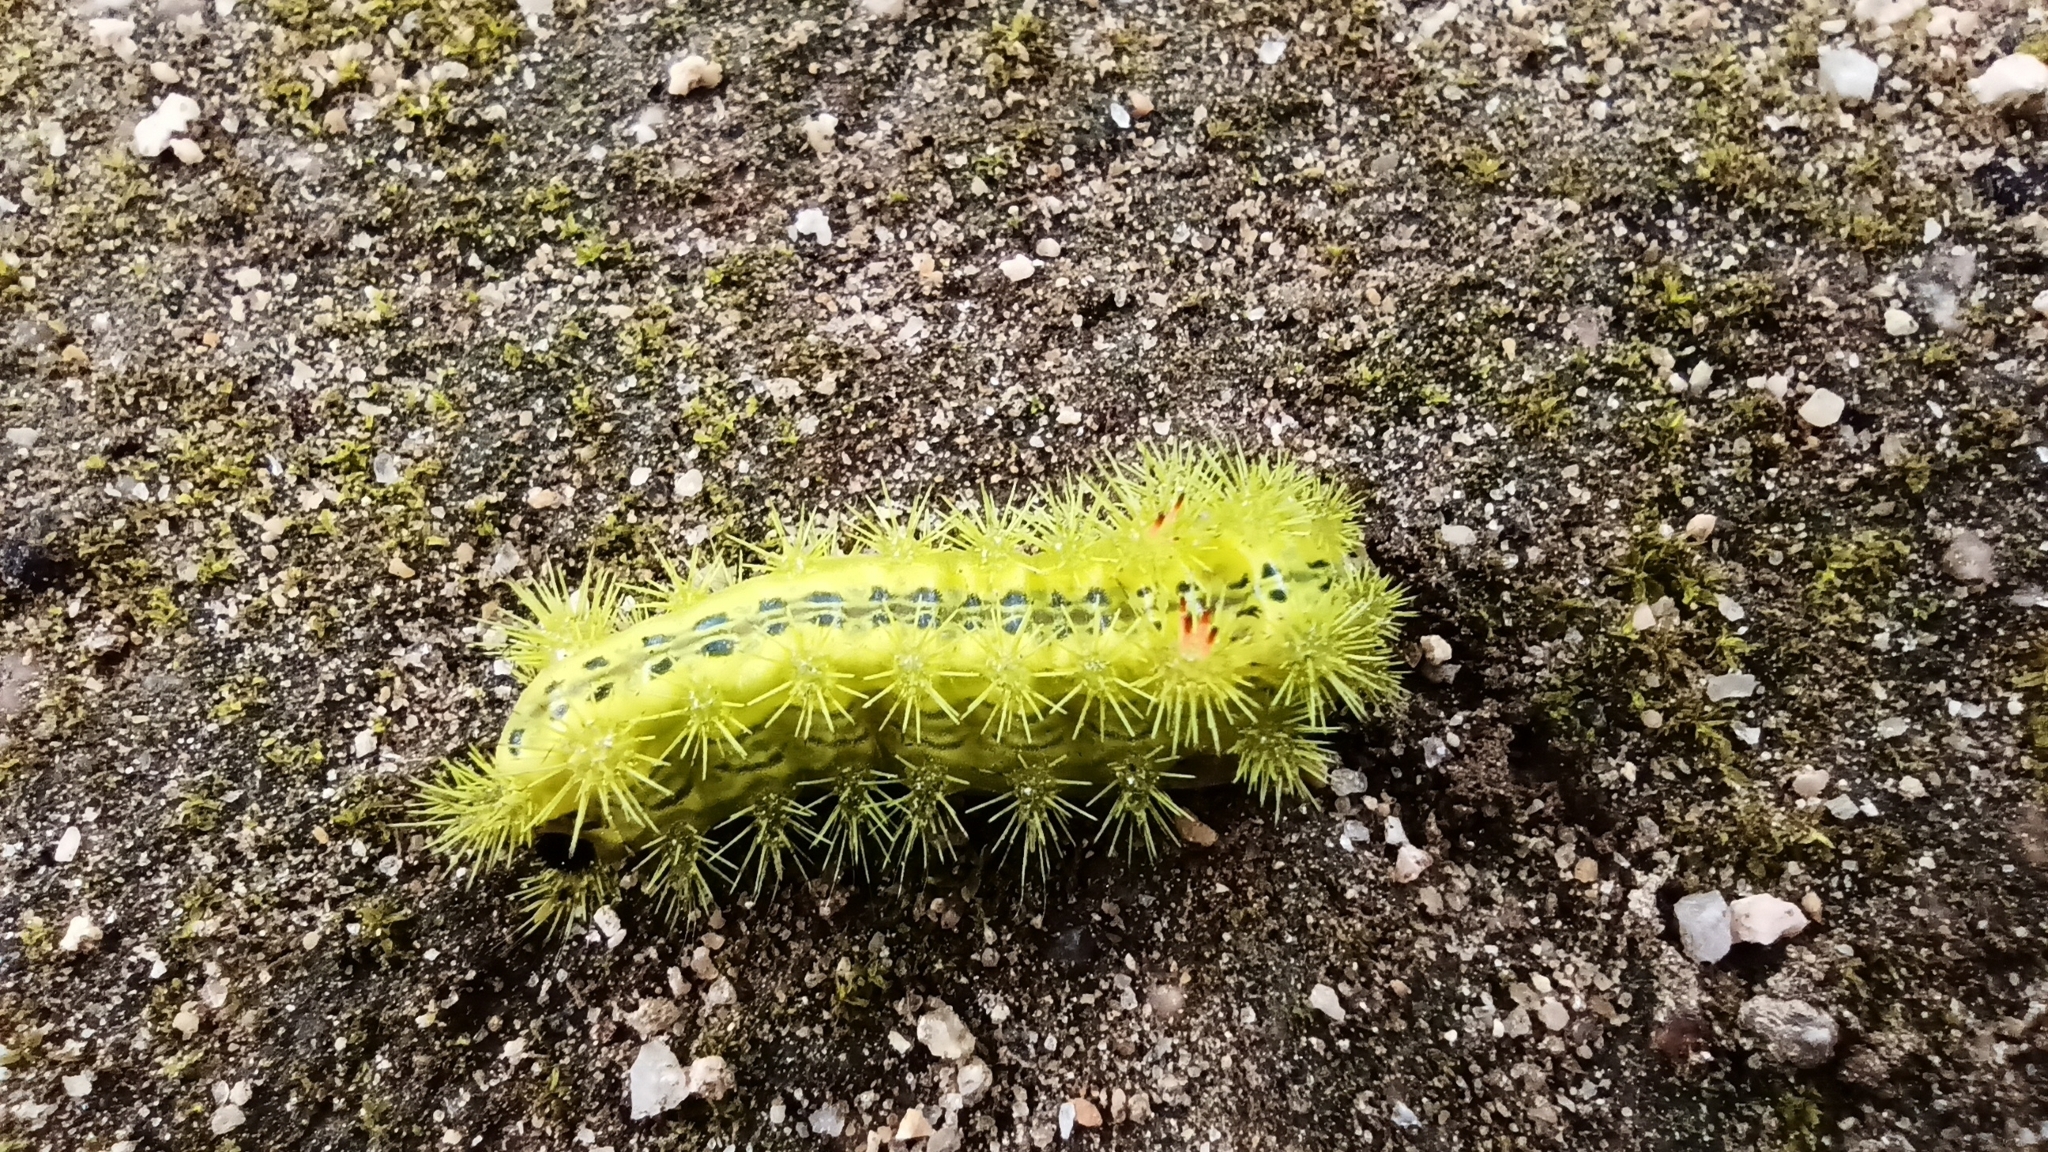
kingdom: Animalia
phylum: Arthropoda
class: Insecta
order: Lepidoptera
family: Limacodidae
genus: Parasa
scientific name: Parasa consocia
